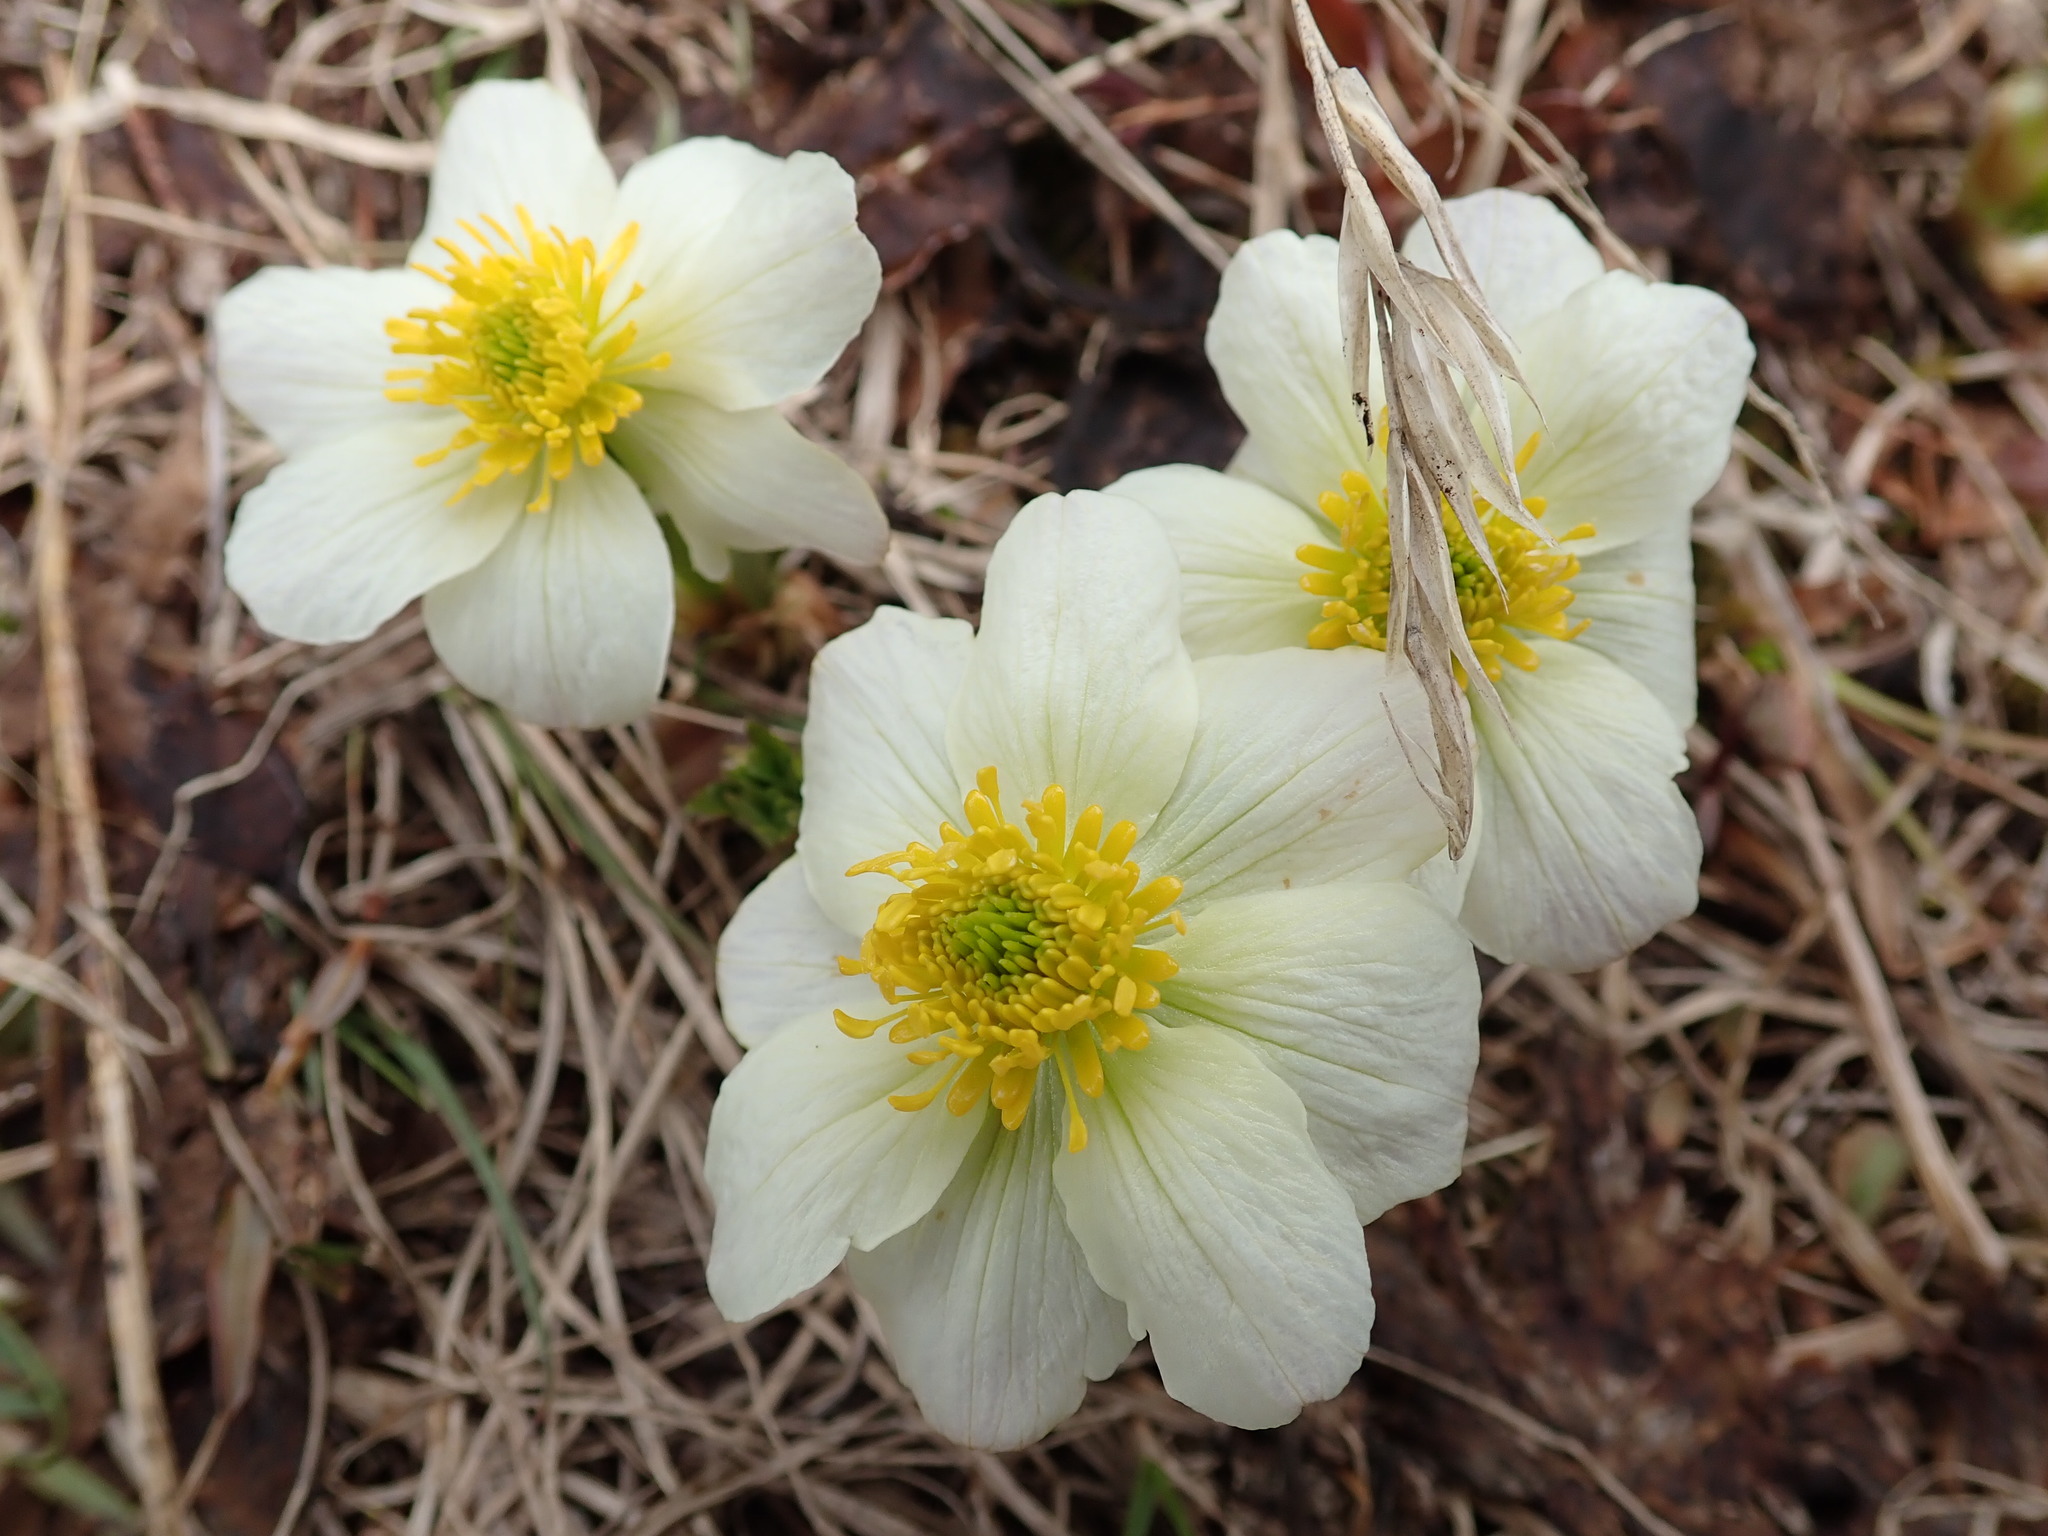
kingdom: Plantae
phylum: Tracheophyta
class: Magnoliopsida
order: Ranunculales
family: Ranunculaceae
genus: Trollius
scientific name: Trollius laxus
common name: American globeflower
